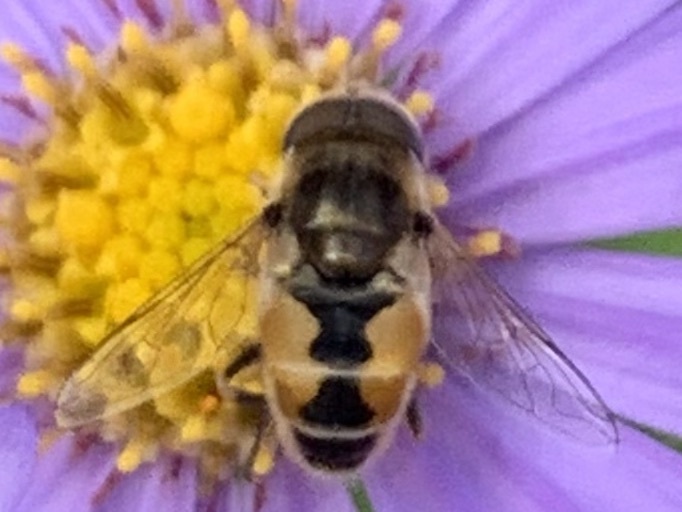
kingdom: Animalia
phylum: Arthropoda
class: Insecta
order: Diptera
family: Syrphidae
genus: Eristalis
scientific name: Eristalis arbustorum
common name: Hover fly
